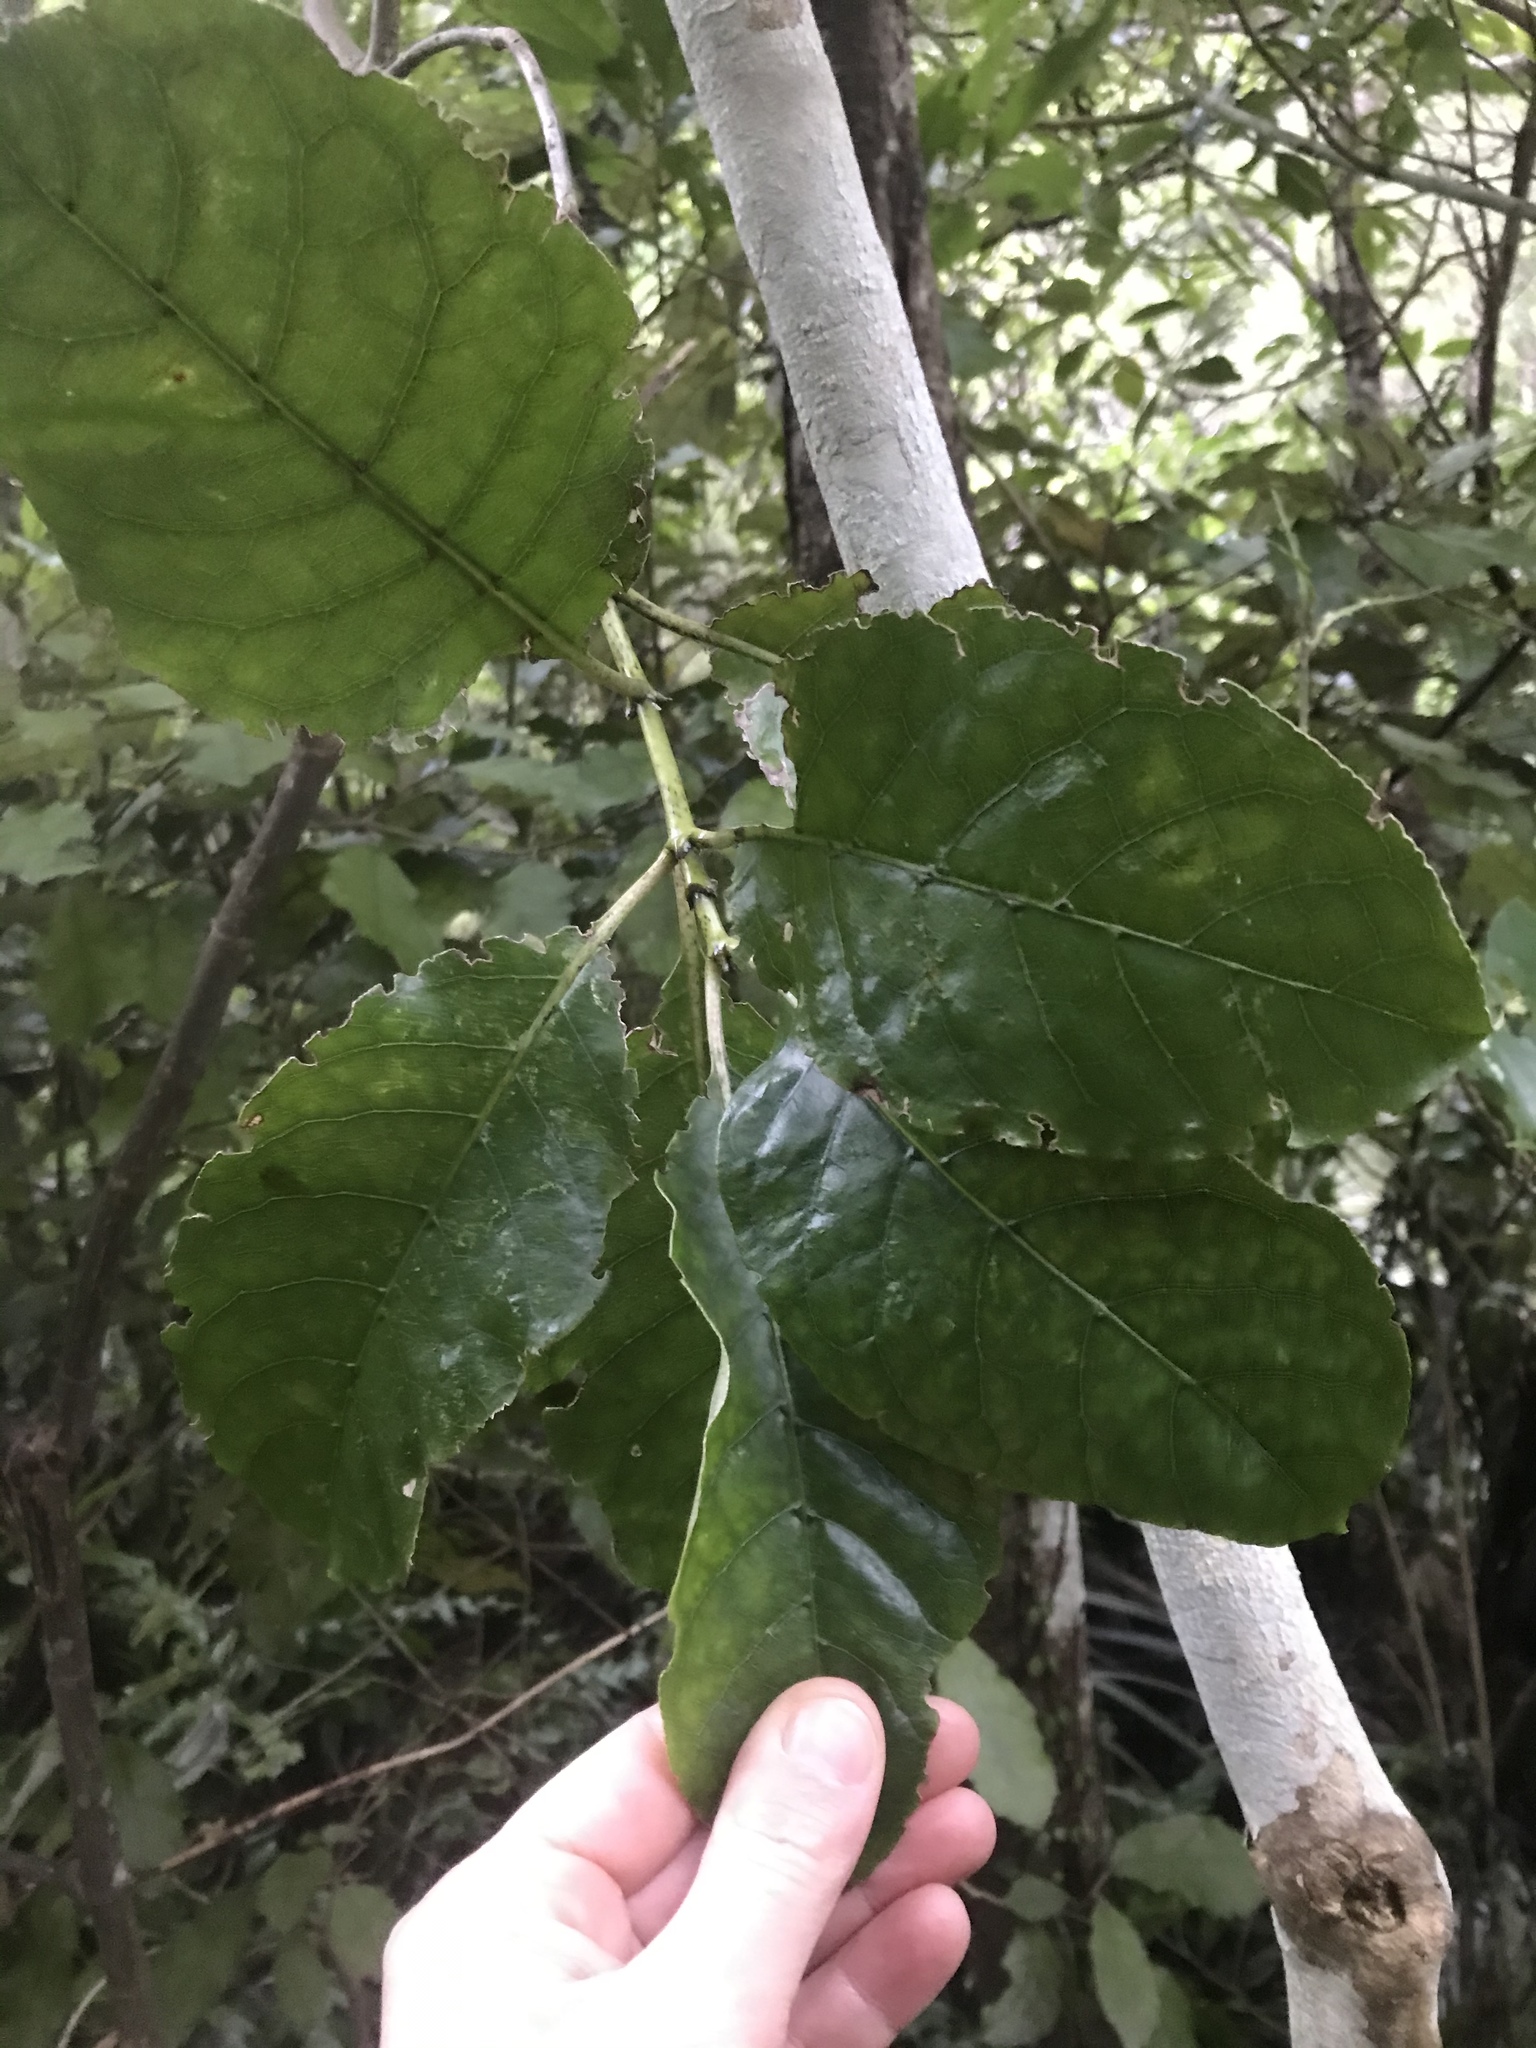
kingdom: Plantae
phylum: Tracheophyta
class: Magnoliopsida
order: Gentianales
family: Rubiaceae
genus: Coprosma
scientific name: Coprosma autumnalis
